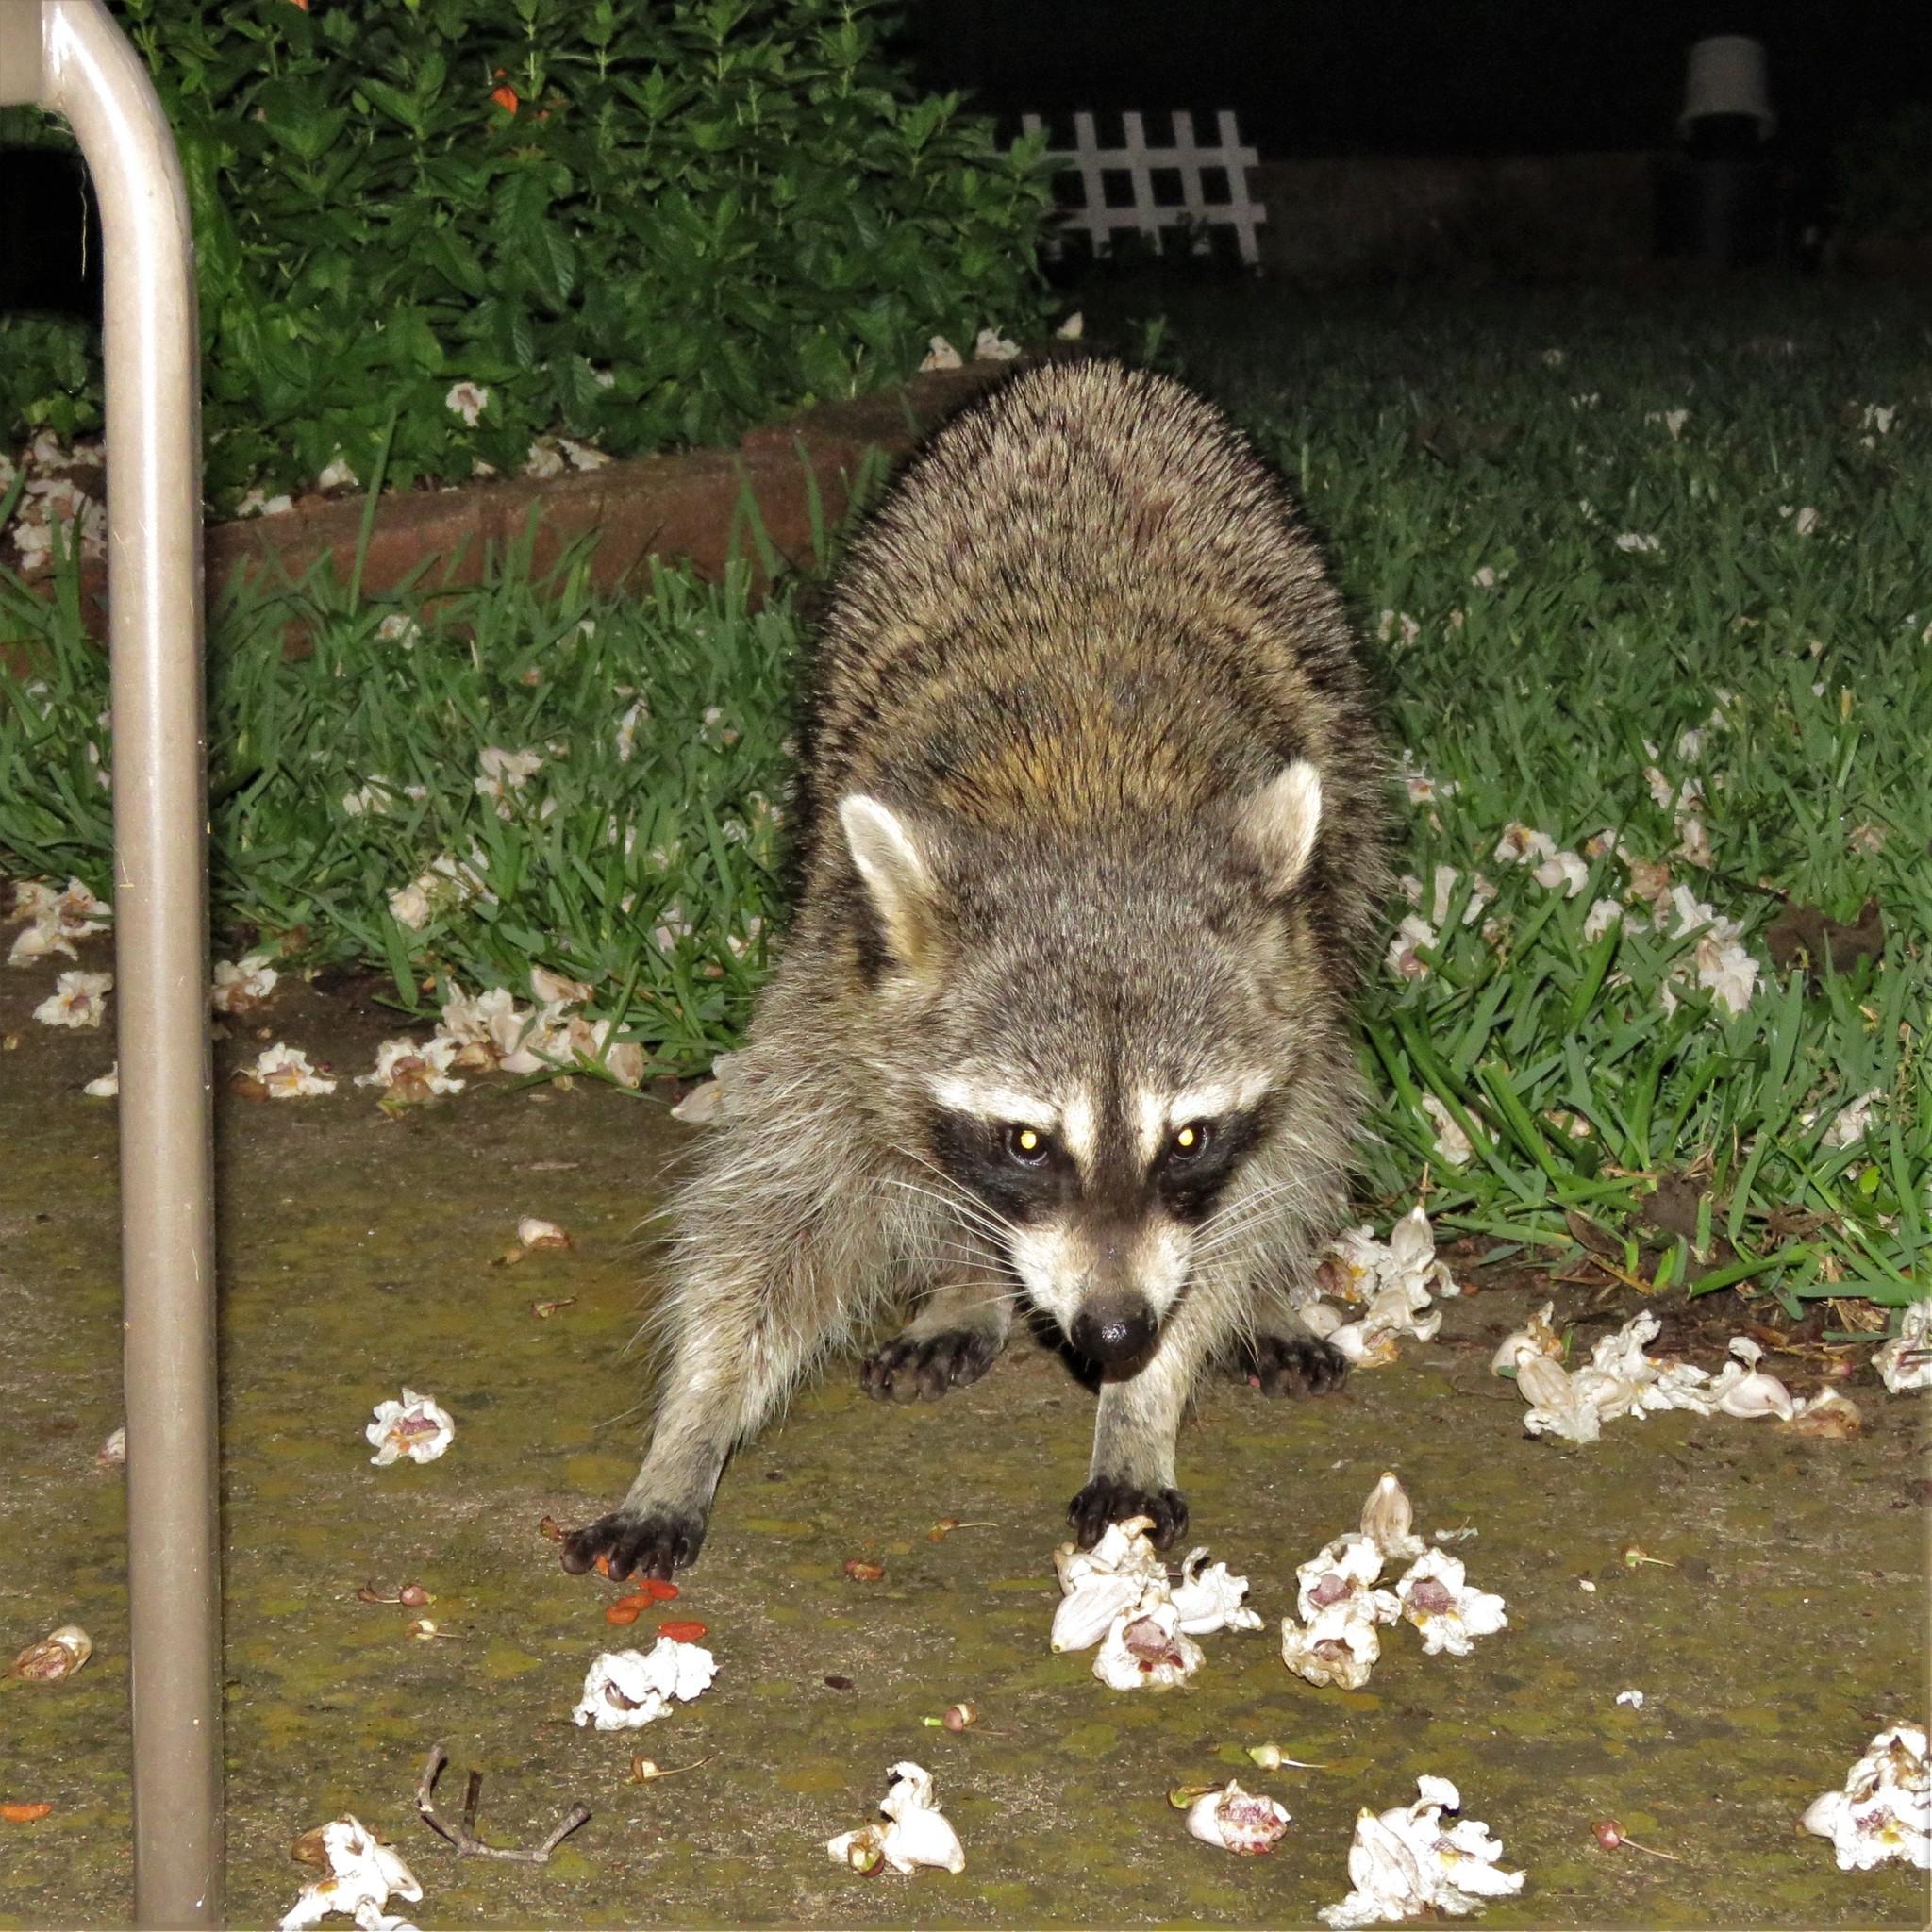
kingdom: Animalia
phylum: Chordata
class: Mammalia
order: Carnivora
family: Procyonidae
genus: Procyon
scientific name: Procyon lotor
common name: Raccoon
